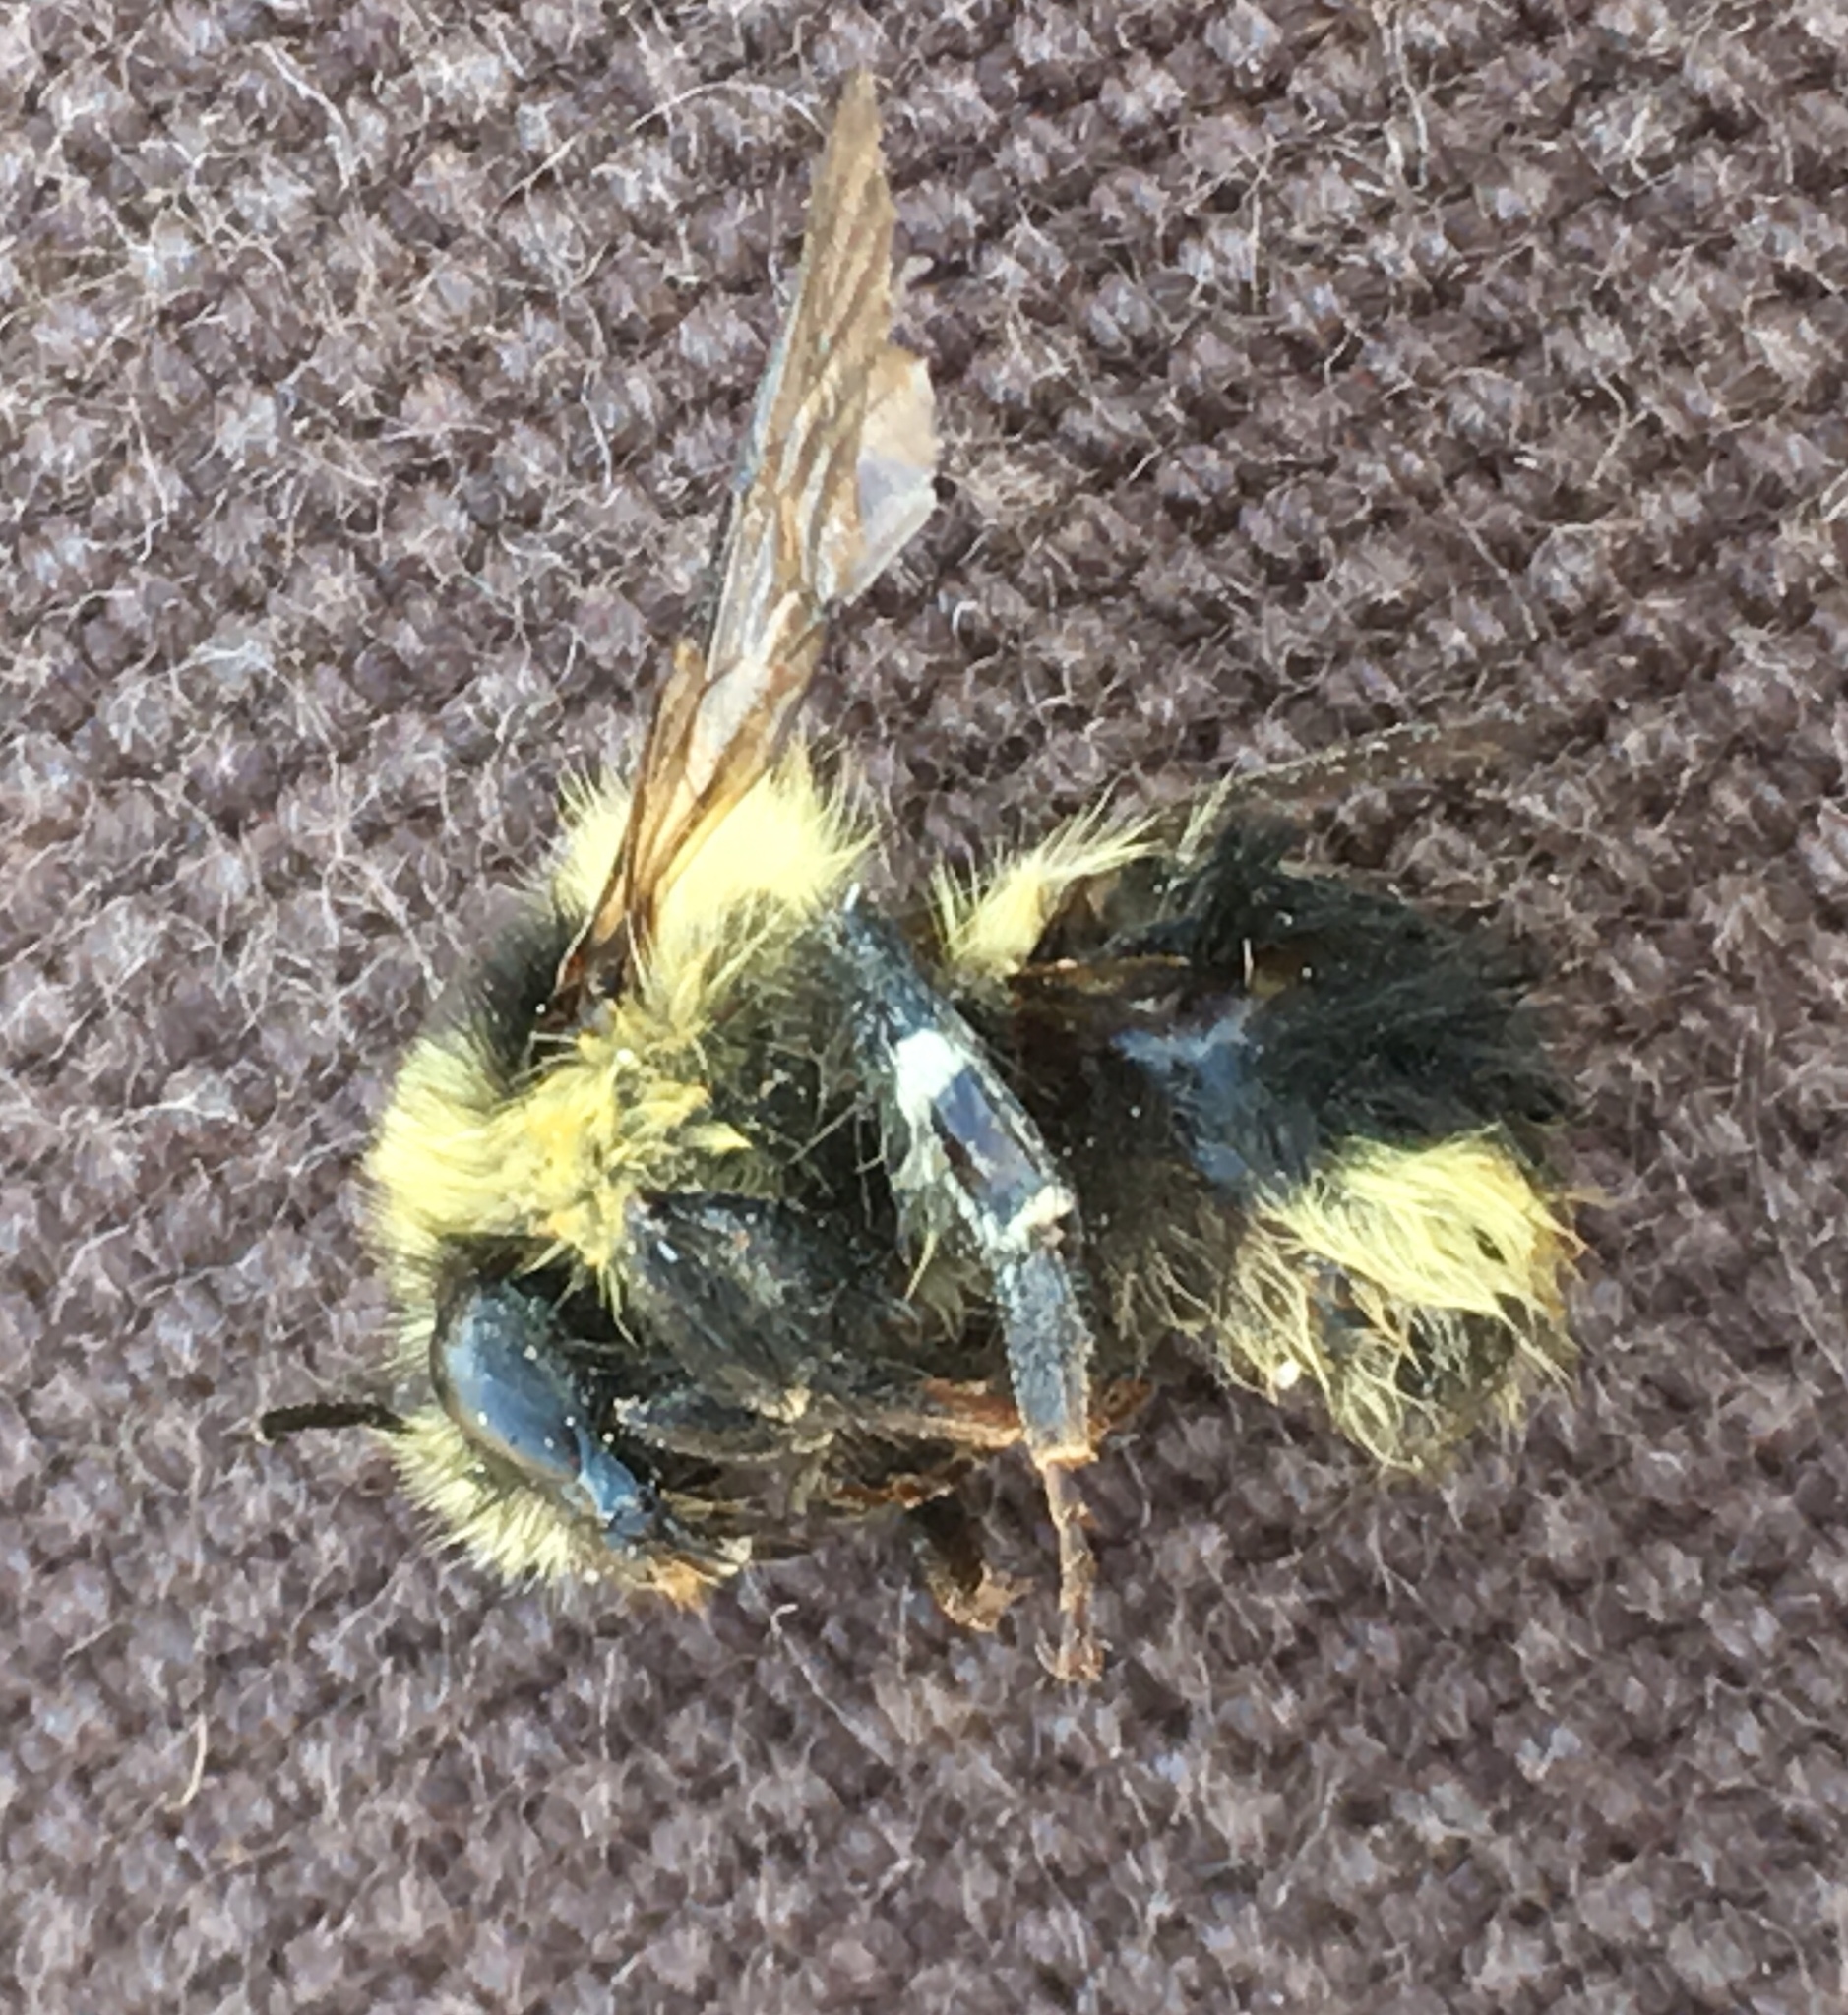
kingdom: Animalia
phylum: Arthropoda
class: Insecta
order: Hymenoptera
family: Apidae
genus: Bombus
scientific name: Bombus melanopygus
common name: Black tail bumble bee
